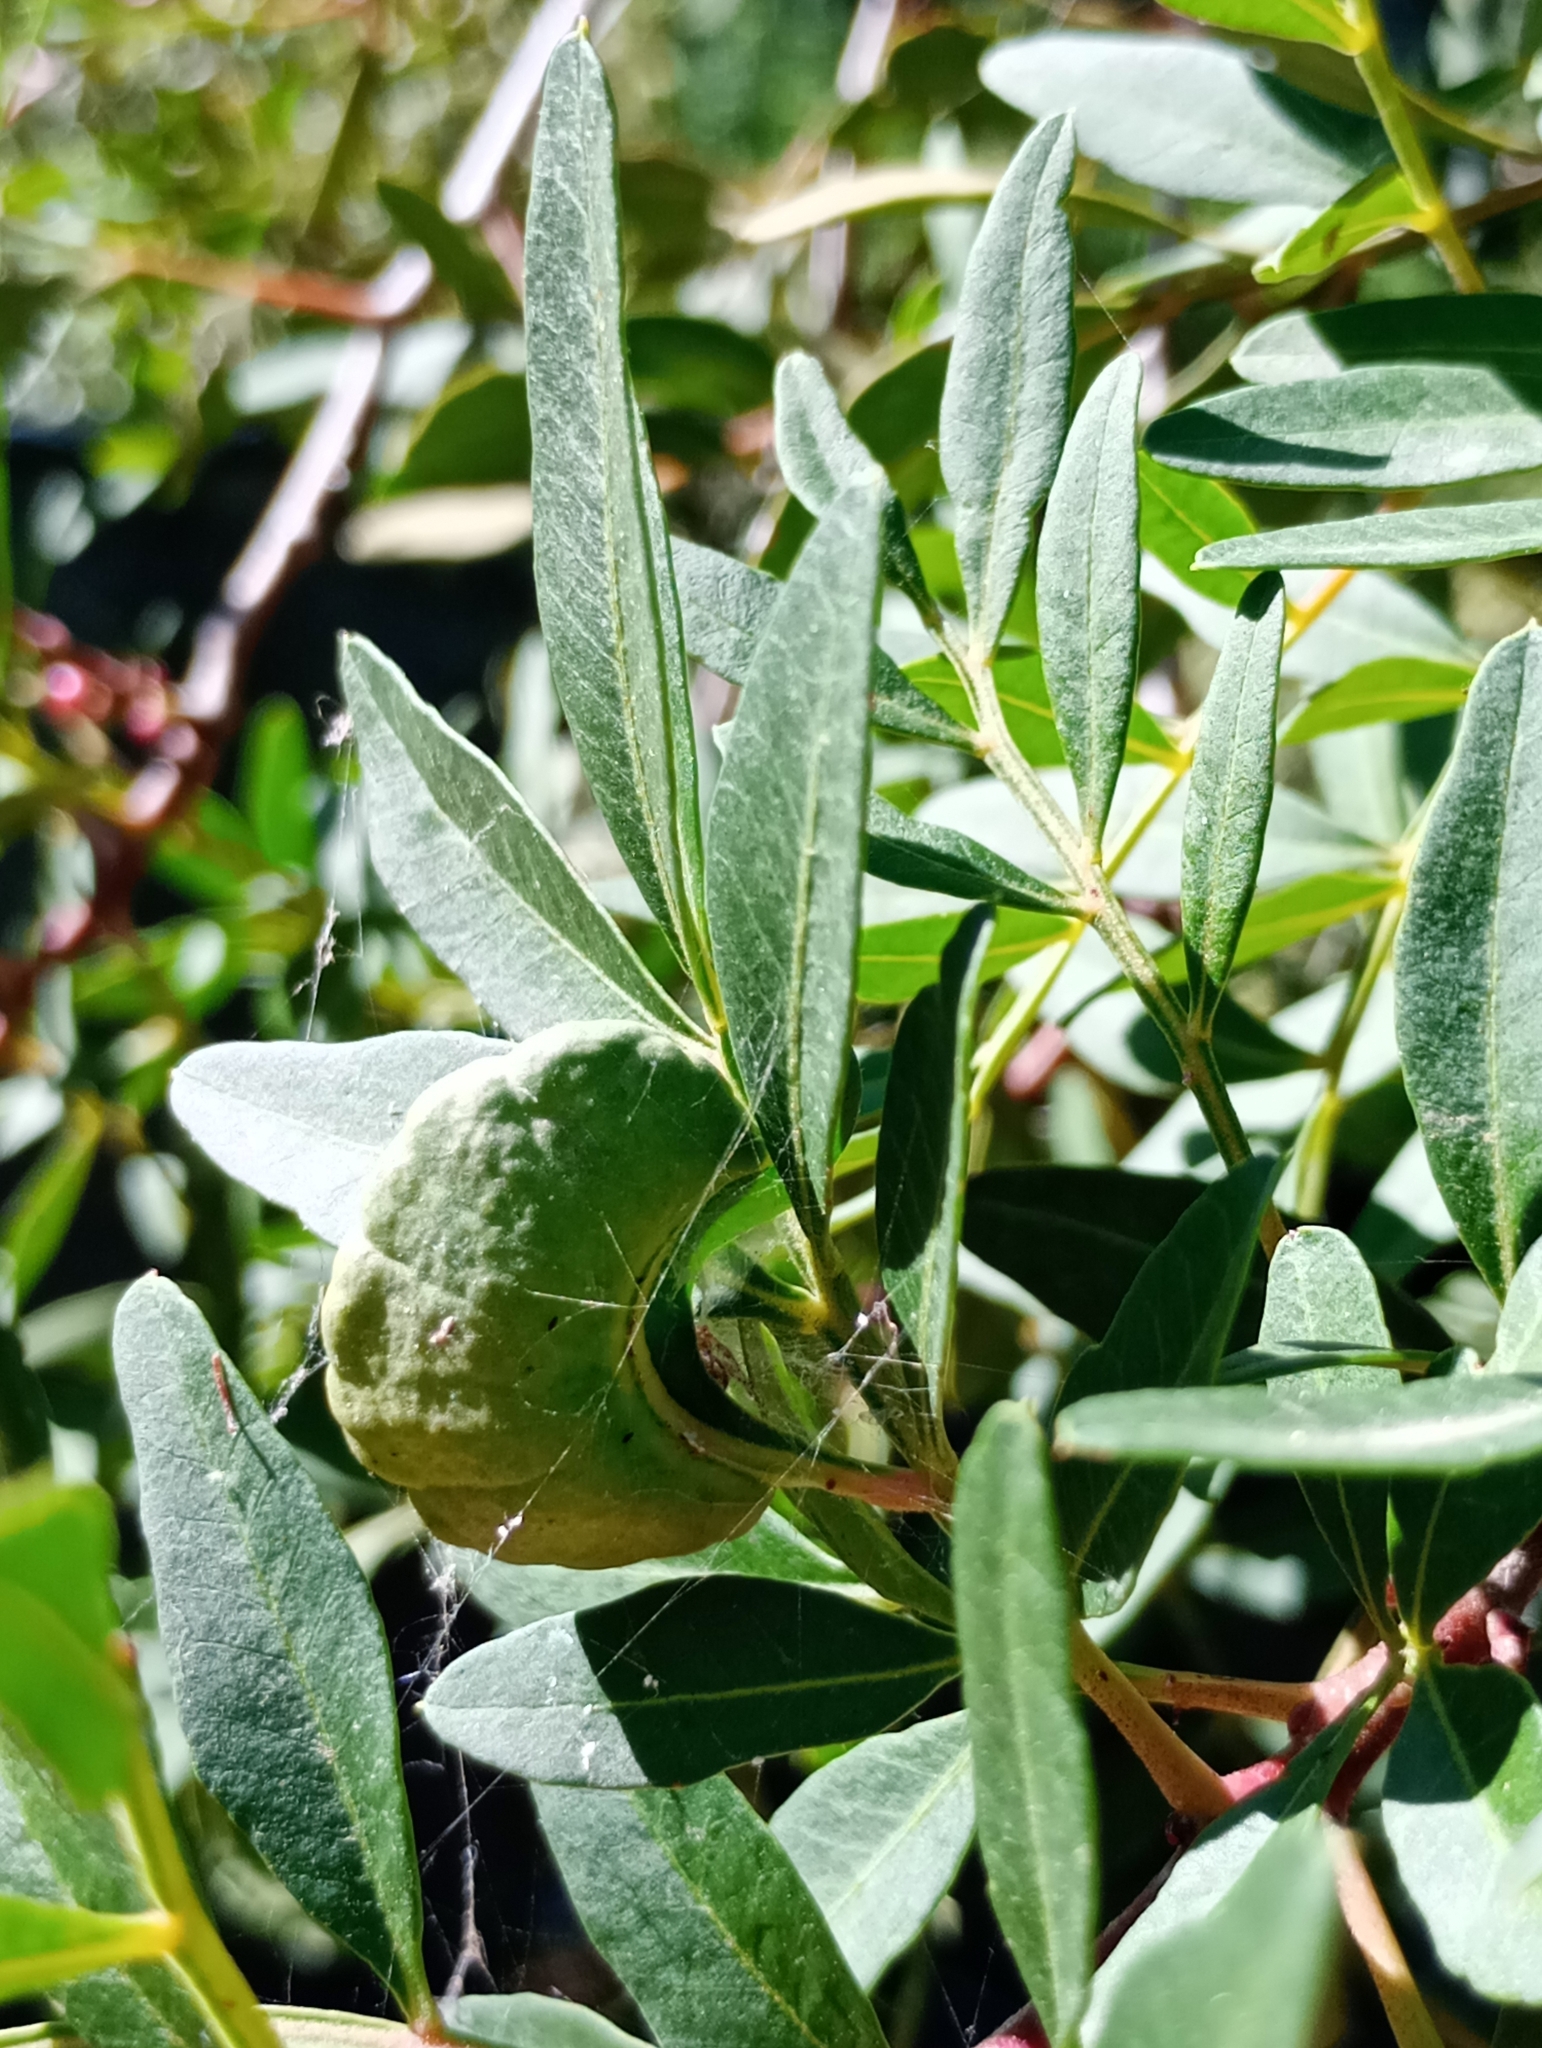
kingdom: Animalia
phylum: Arthropoda
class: Insecta
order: Hemiptera
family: Aphididae
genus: Aploneura
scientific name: Aploneura lentisci
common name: Mealy grass root aphid
